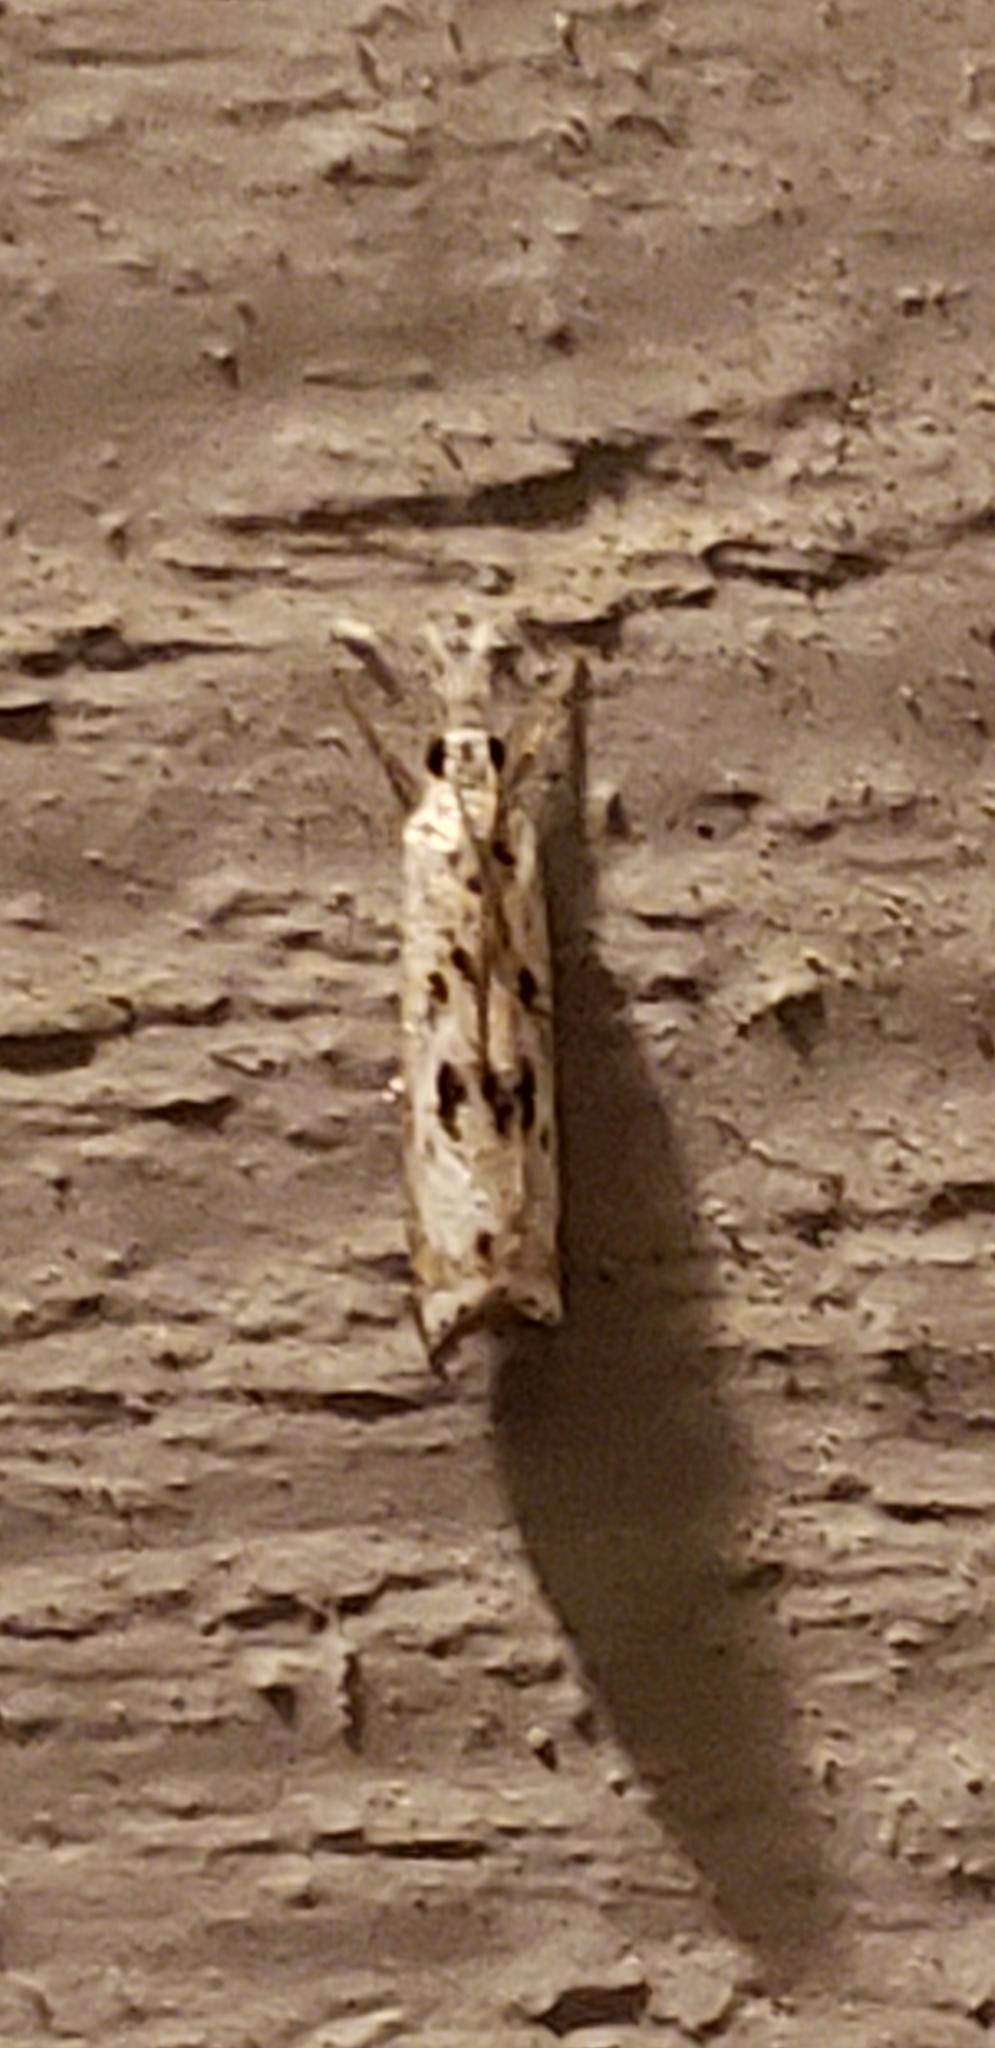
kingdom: Animalia
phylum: Arthropoda
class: Insecta
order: Lepidoptera
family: Crambidae
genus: Microcrambus
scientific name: Microcrambus immunellus
